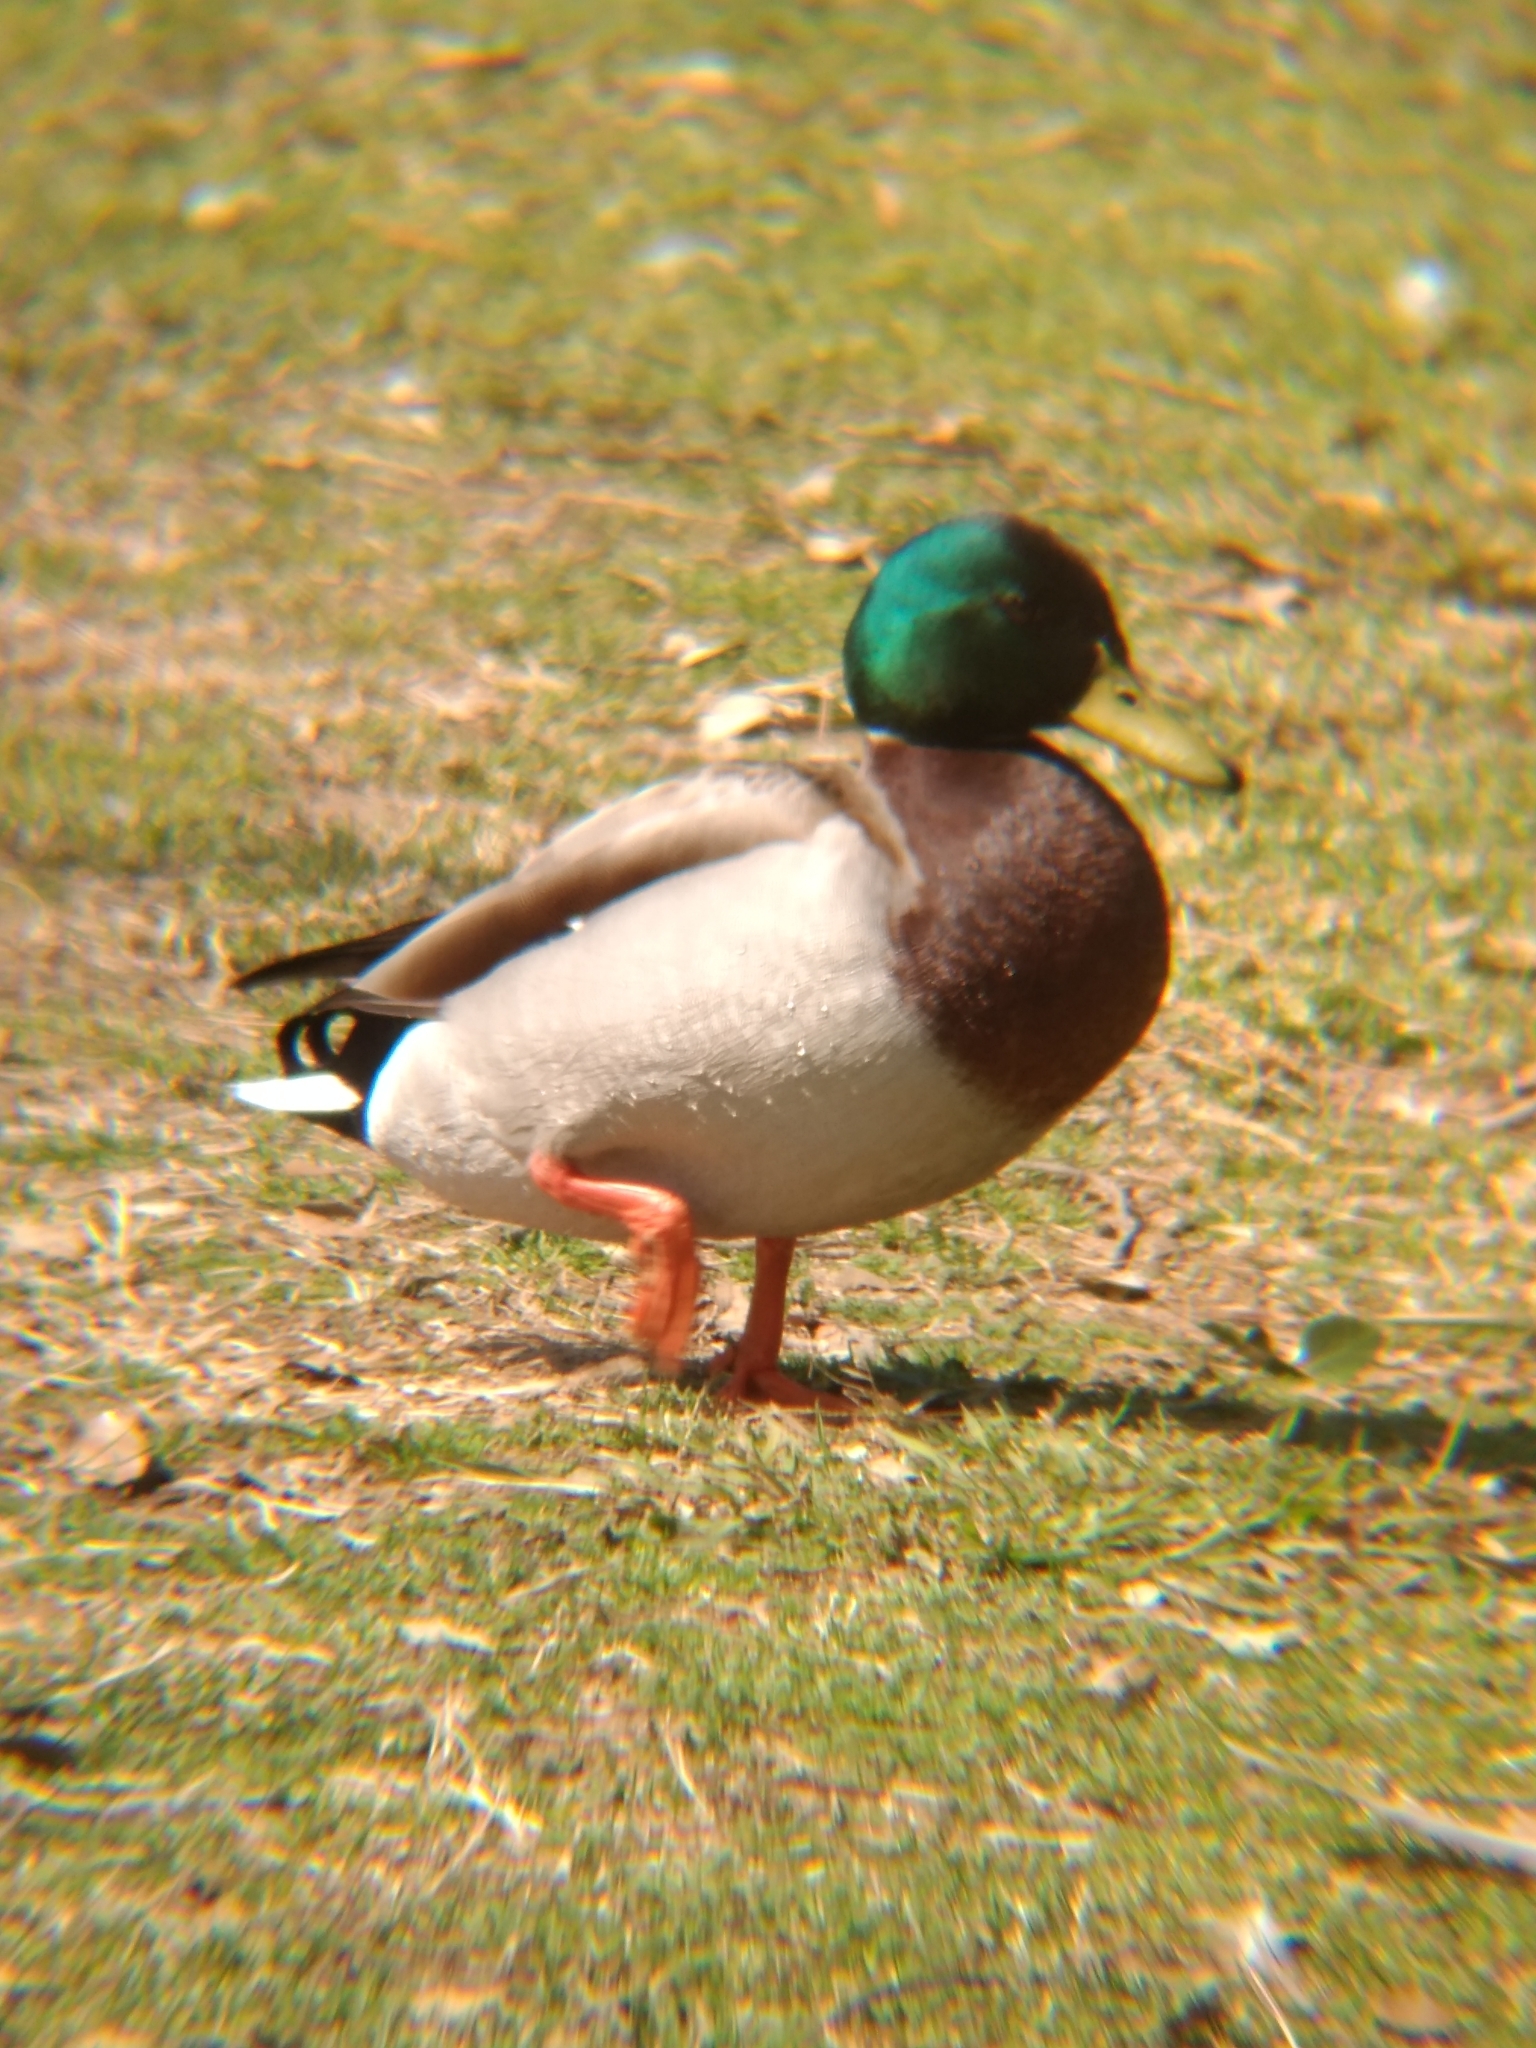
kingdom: Animalia
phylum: Chordata
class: Aves
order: Anseriformes
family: Anatidae
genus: Anas
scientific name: Anas platyrhynchos
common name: Mallard
